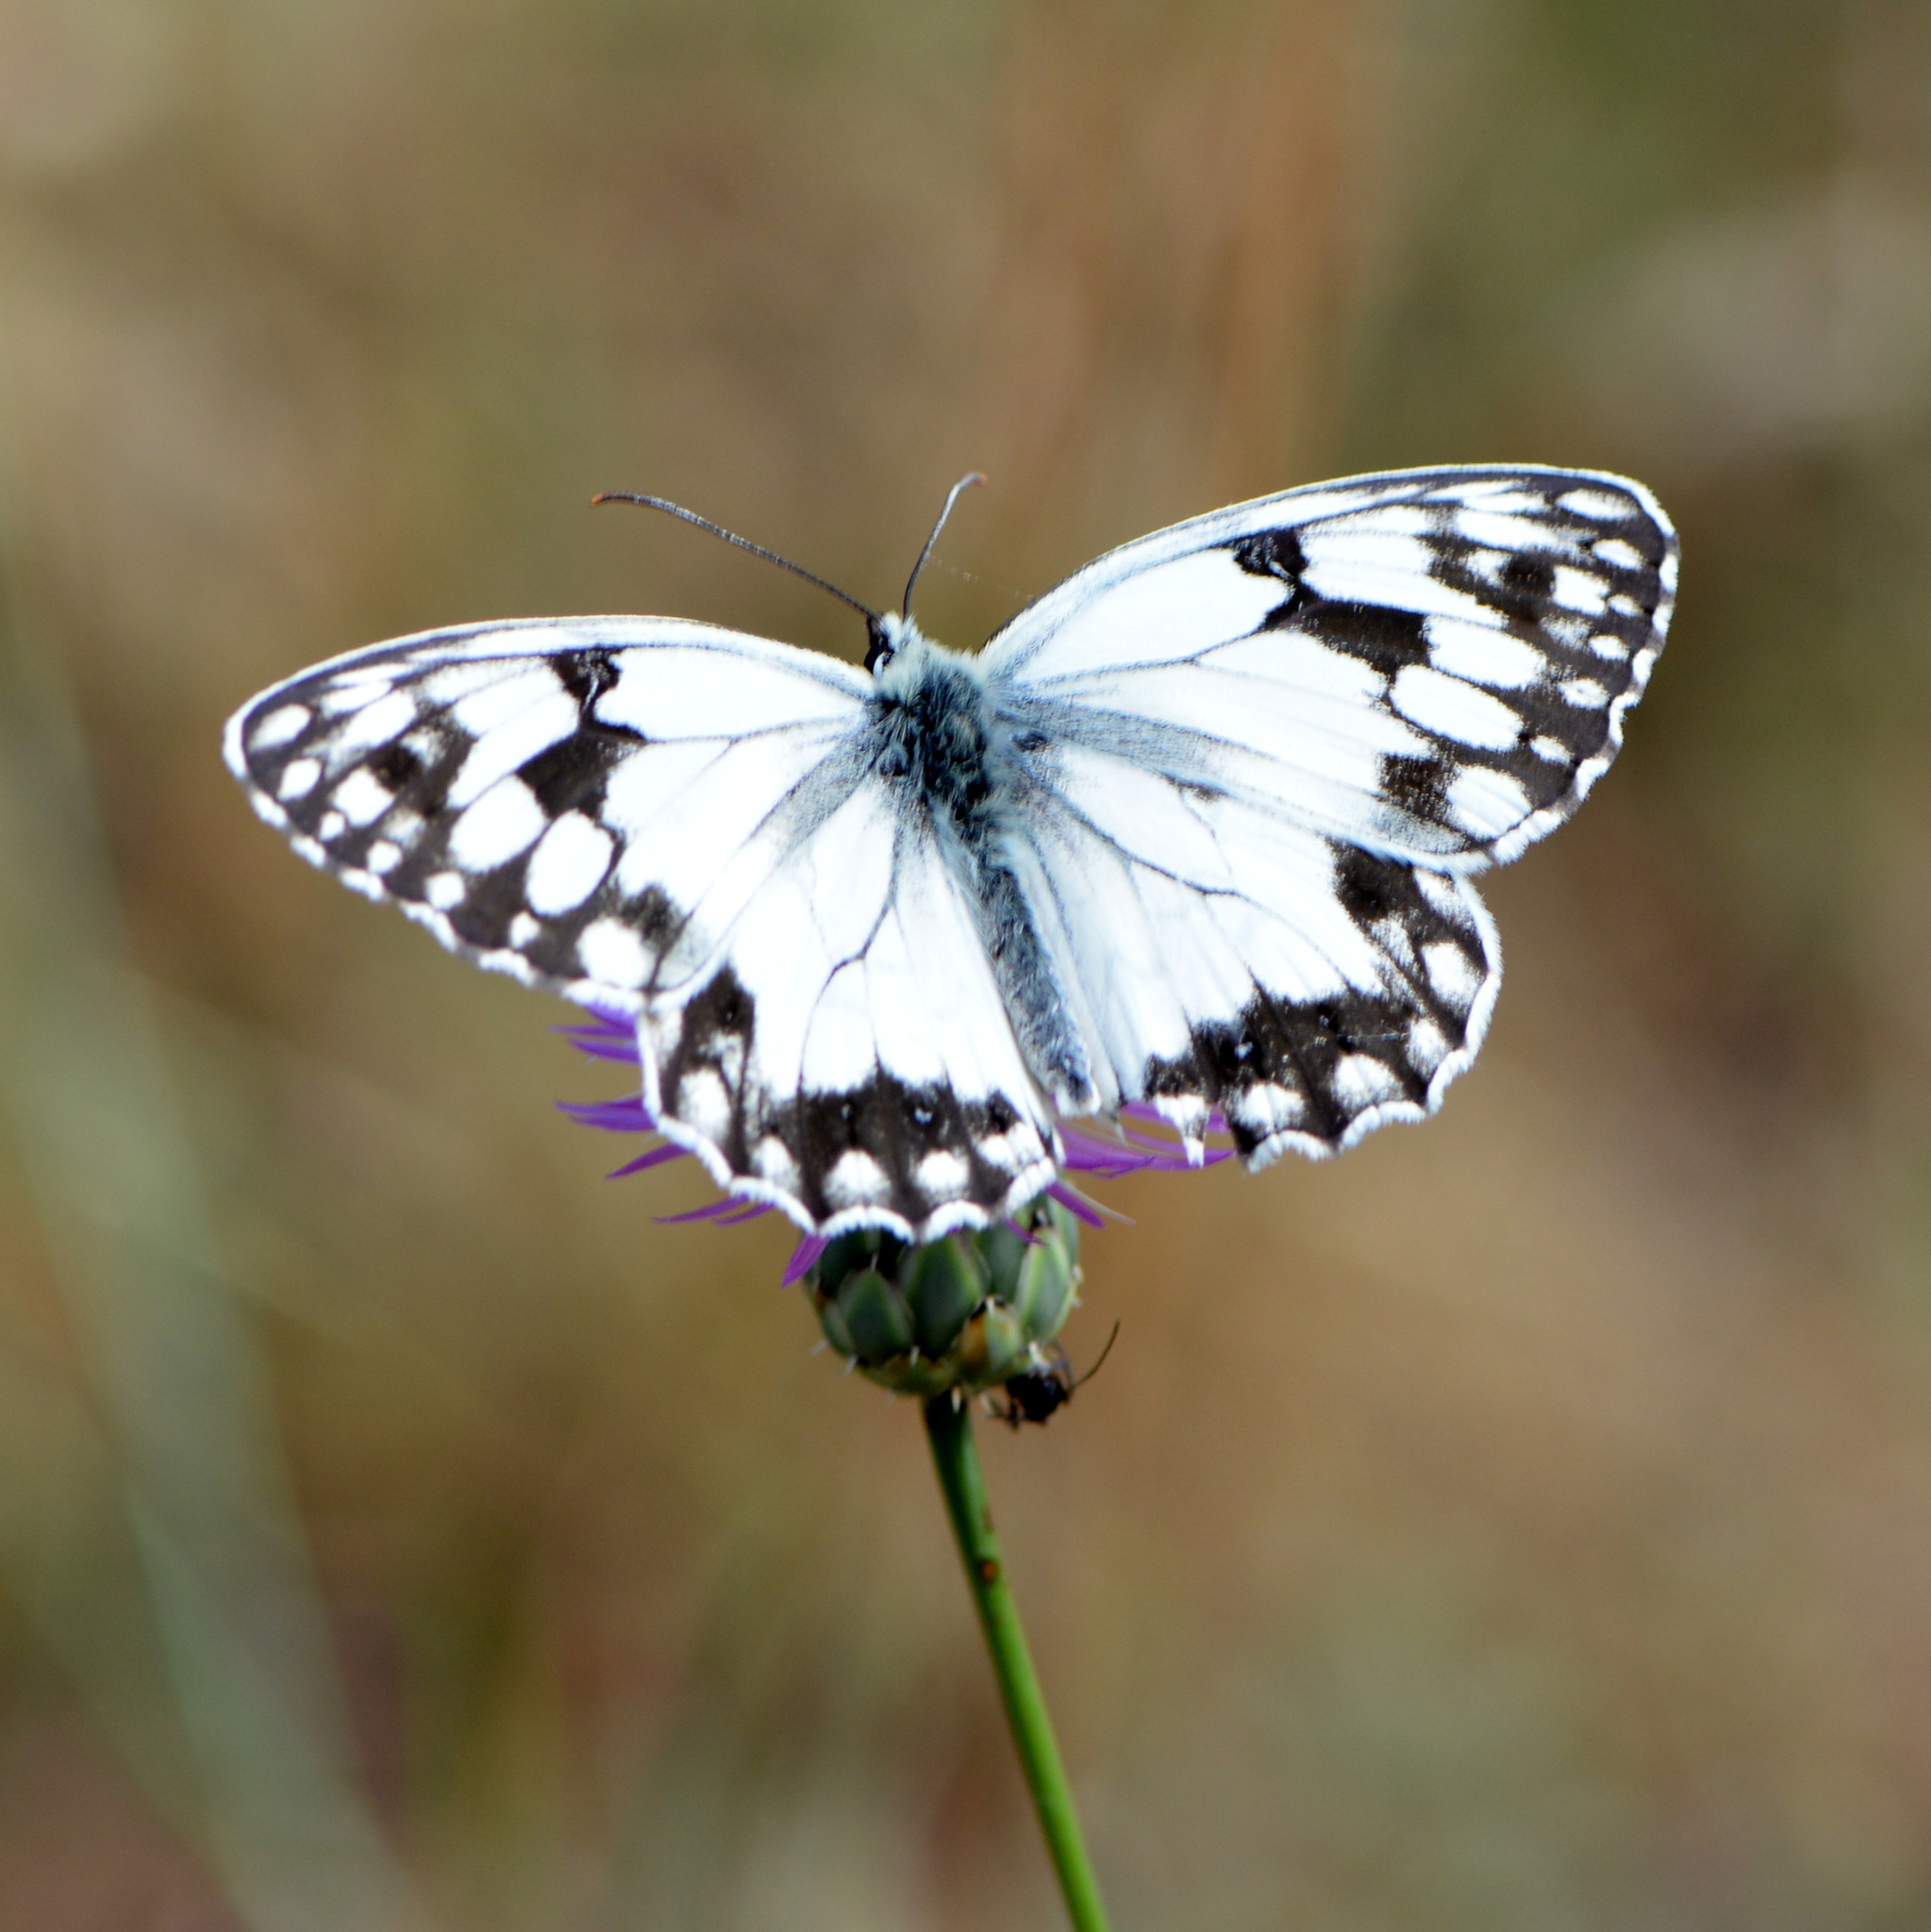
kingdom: Animalia
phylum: Arthropoda
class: Insecta
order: Lepidoptera
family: Nymphalidae
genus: Melanargia
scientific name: Melanargia lachesis
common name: Iberian marbled white
